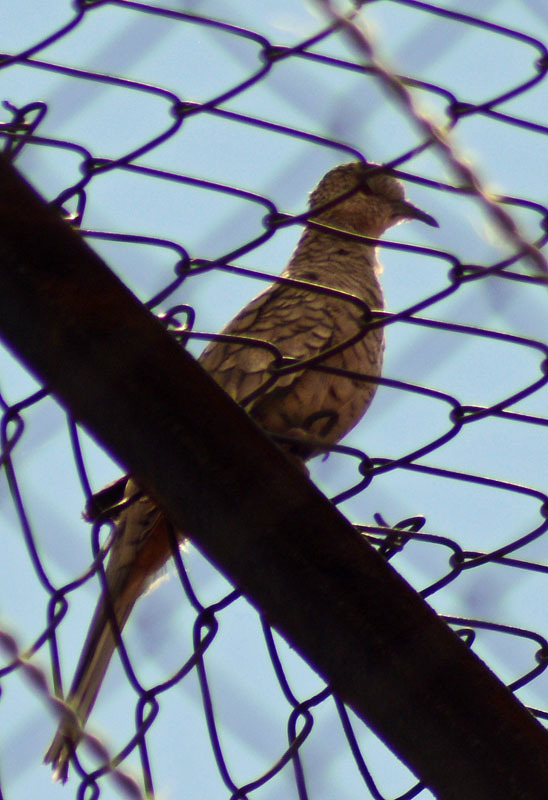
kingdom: Animalia
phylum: Chordata
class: Aves
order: Columbiformes
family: Columbidae
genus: Columbina
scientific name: Columbina inca
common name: Inca dove
